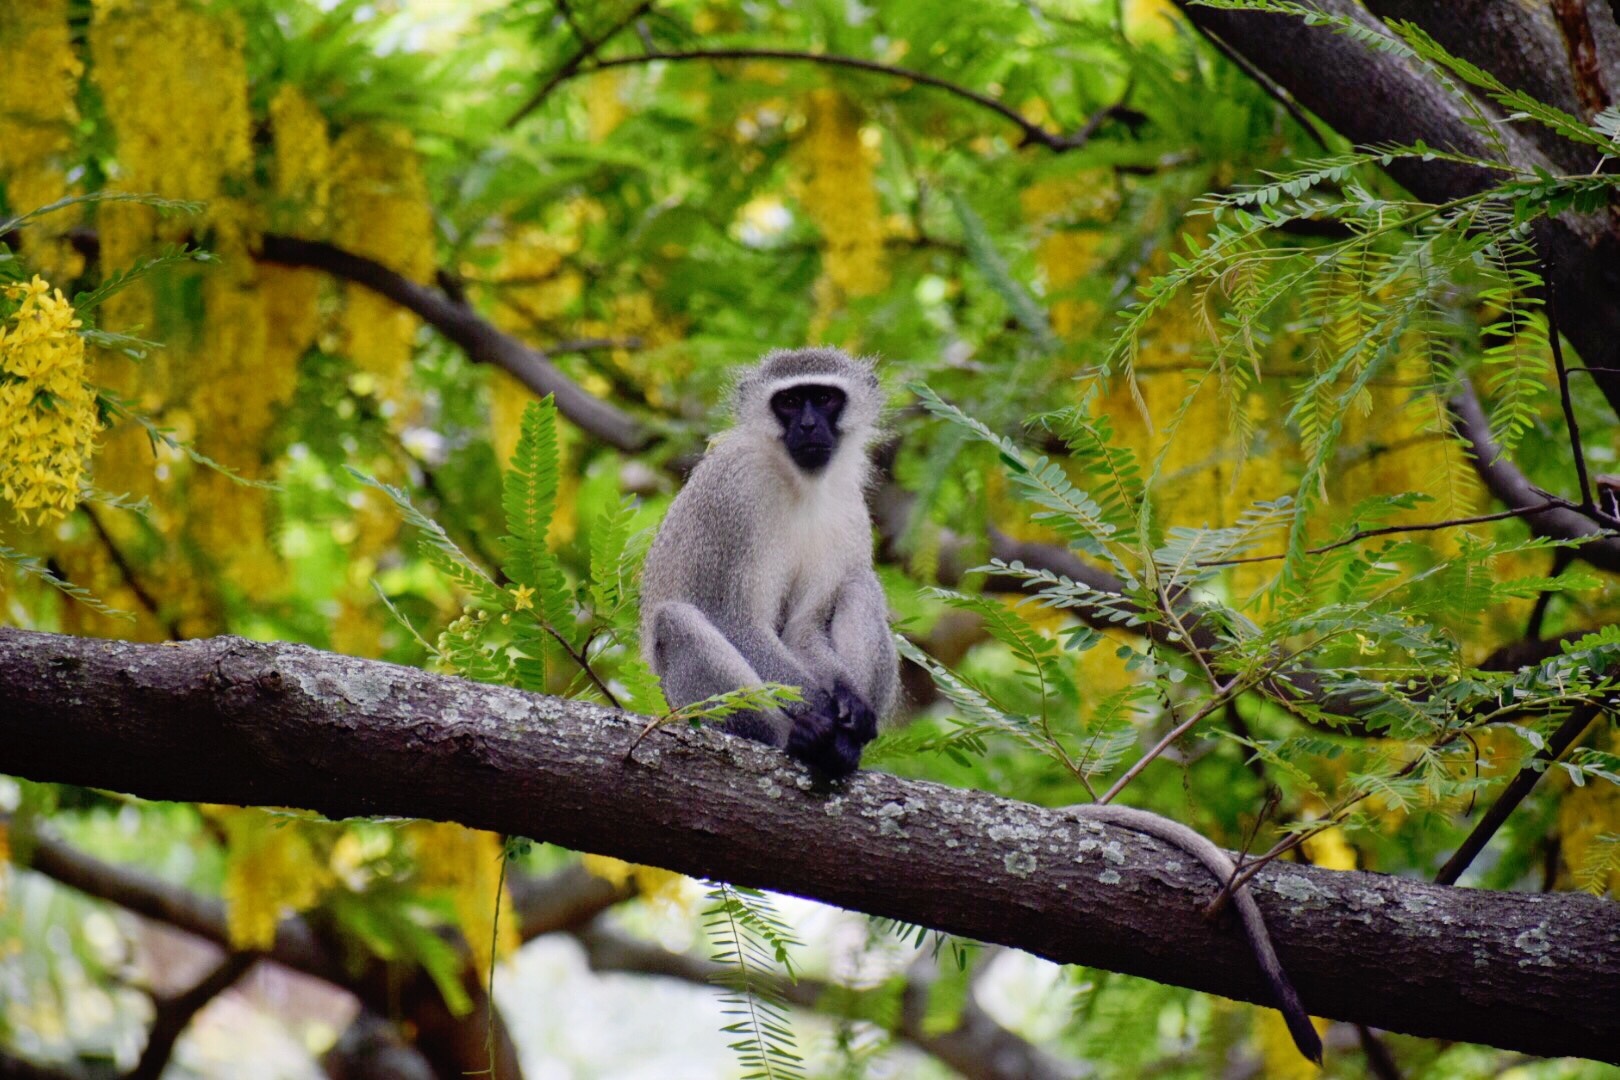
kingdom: Animalia
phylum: Chordata
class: Mammalia
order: Primates
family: Cercopithecidae
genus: Chlorocebus
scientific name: Chlorocebus pygerythrus
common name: Vervet monkey
